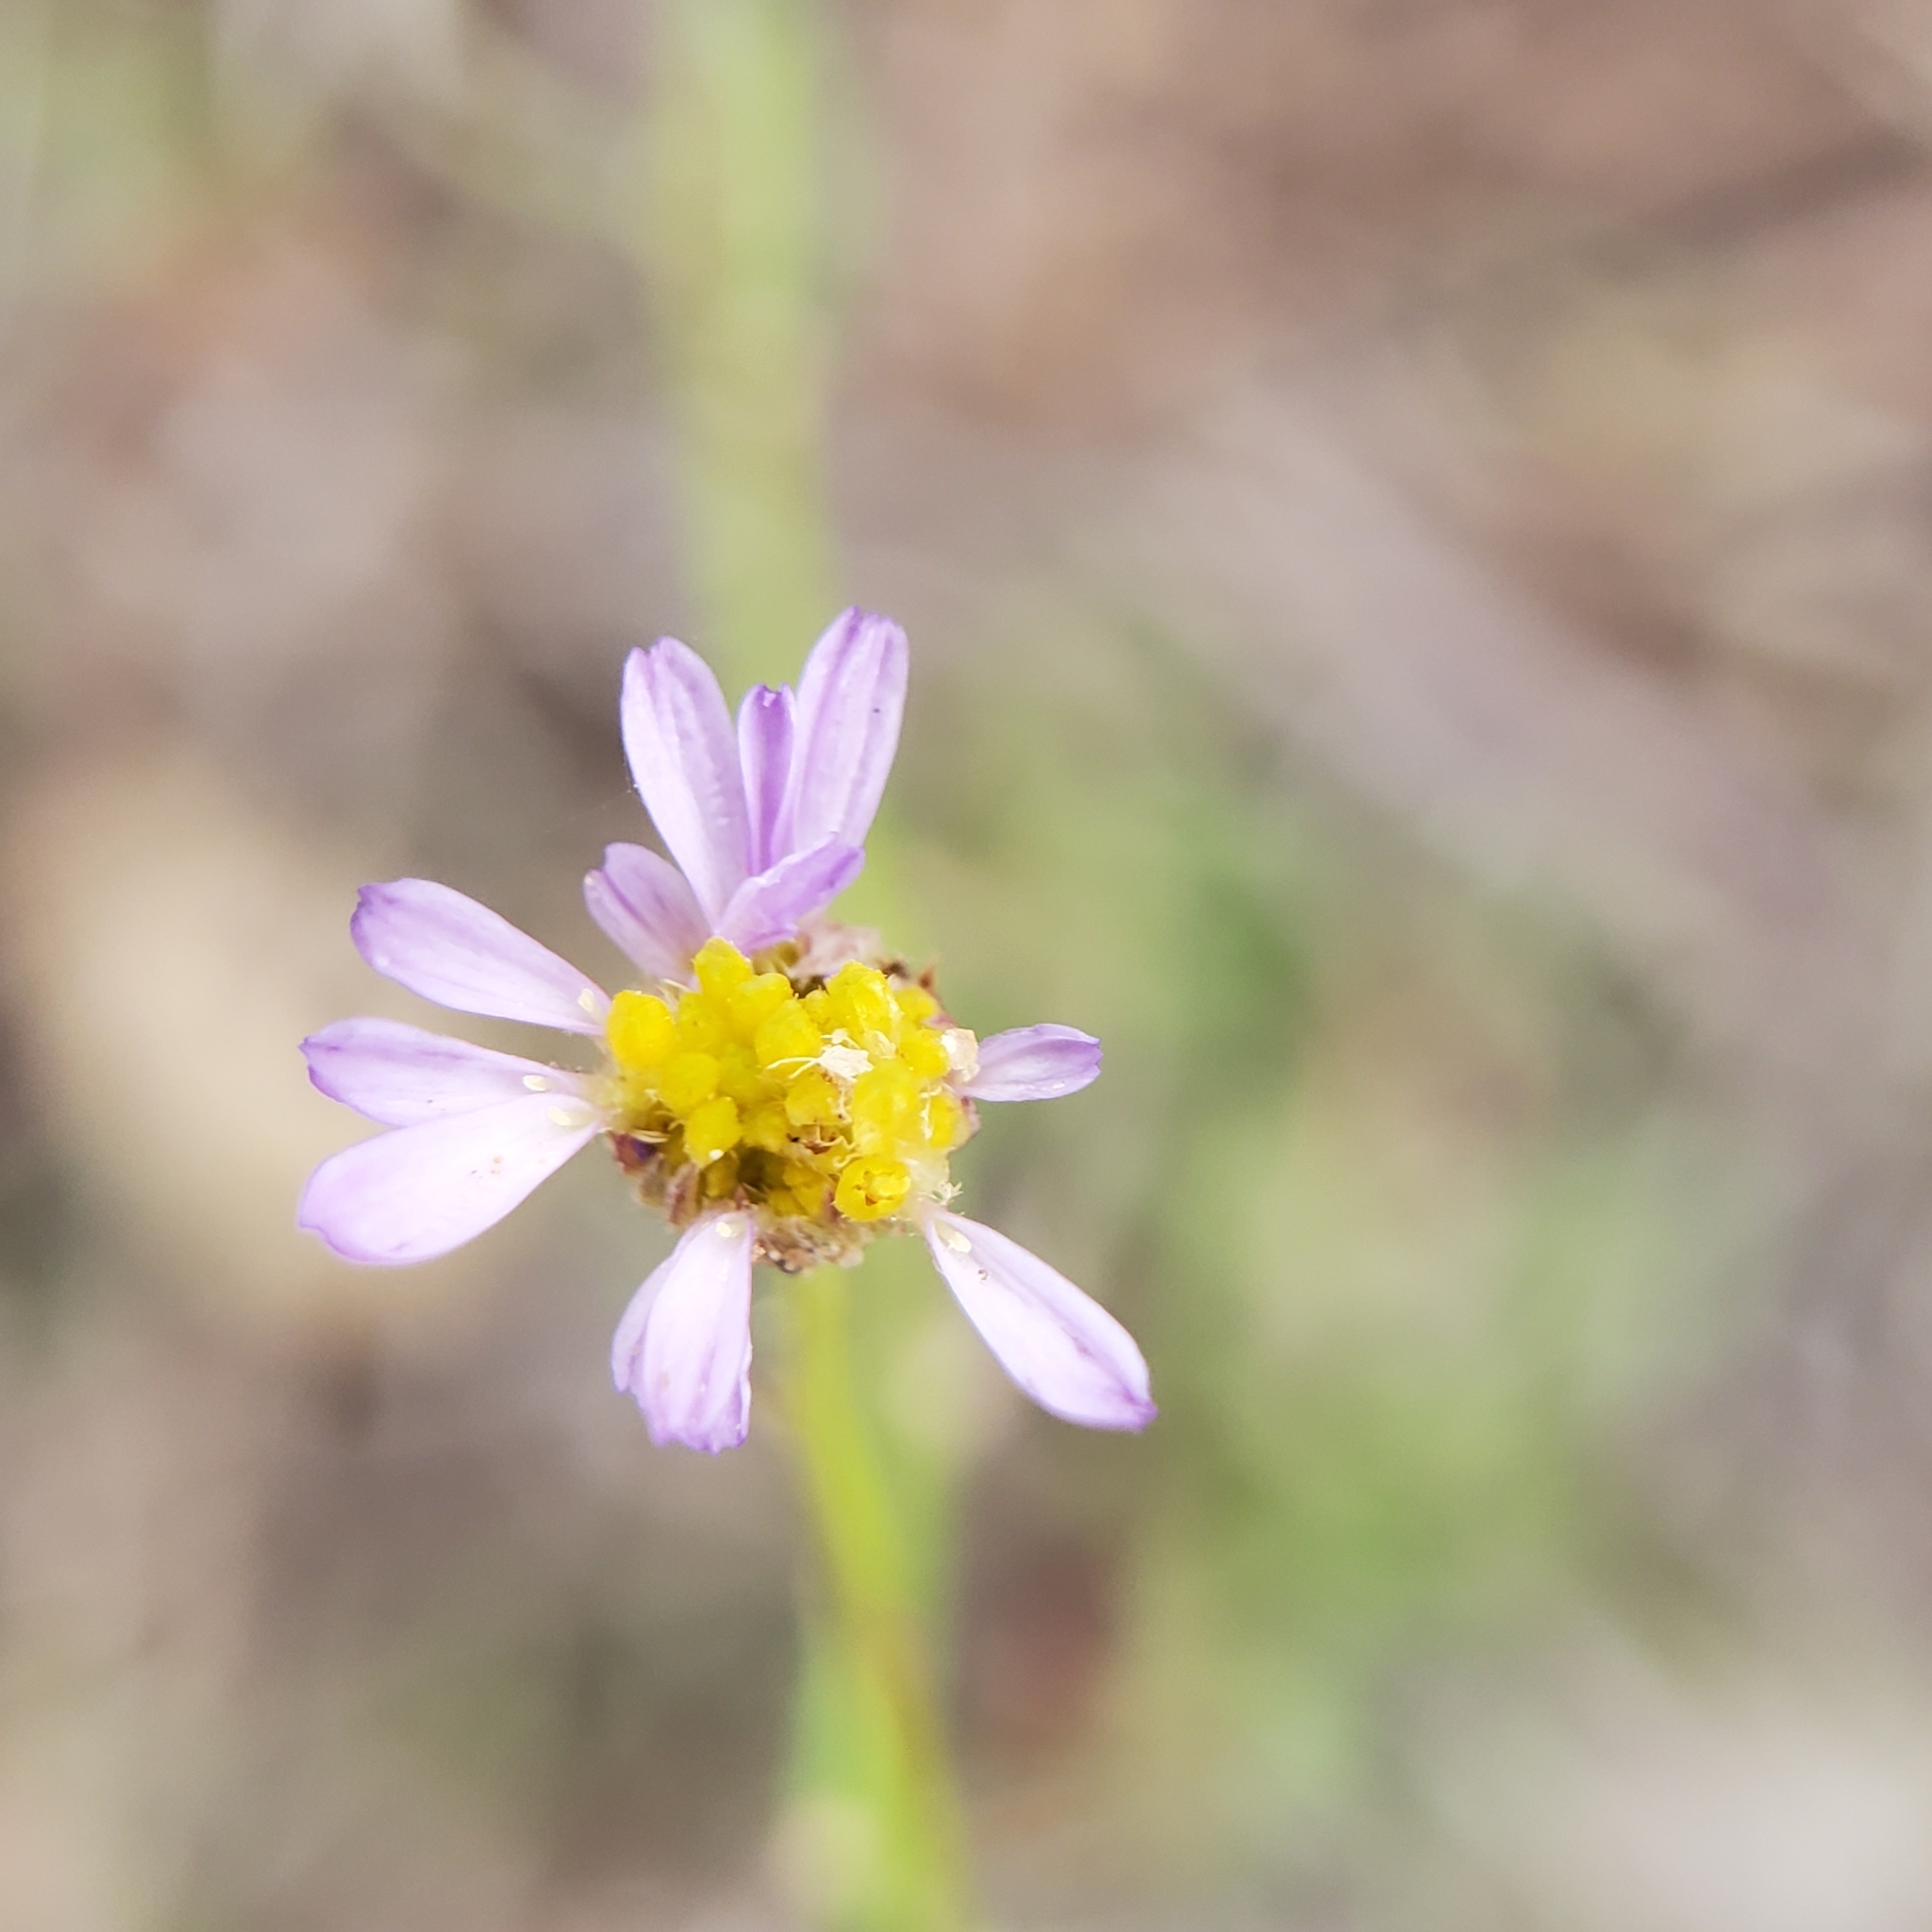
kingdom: Plantae
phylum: Tracheophyta
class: Magnoliopsida
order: Asterales
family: Asteraceae
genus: Erigeron
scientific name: Erigeron foliosus
